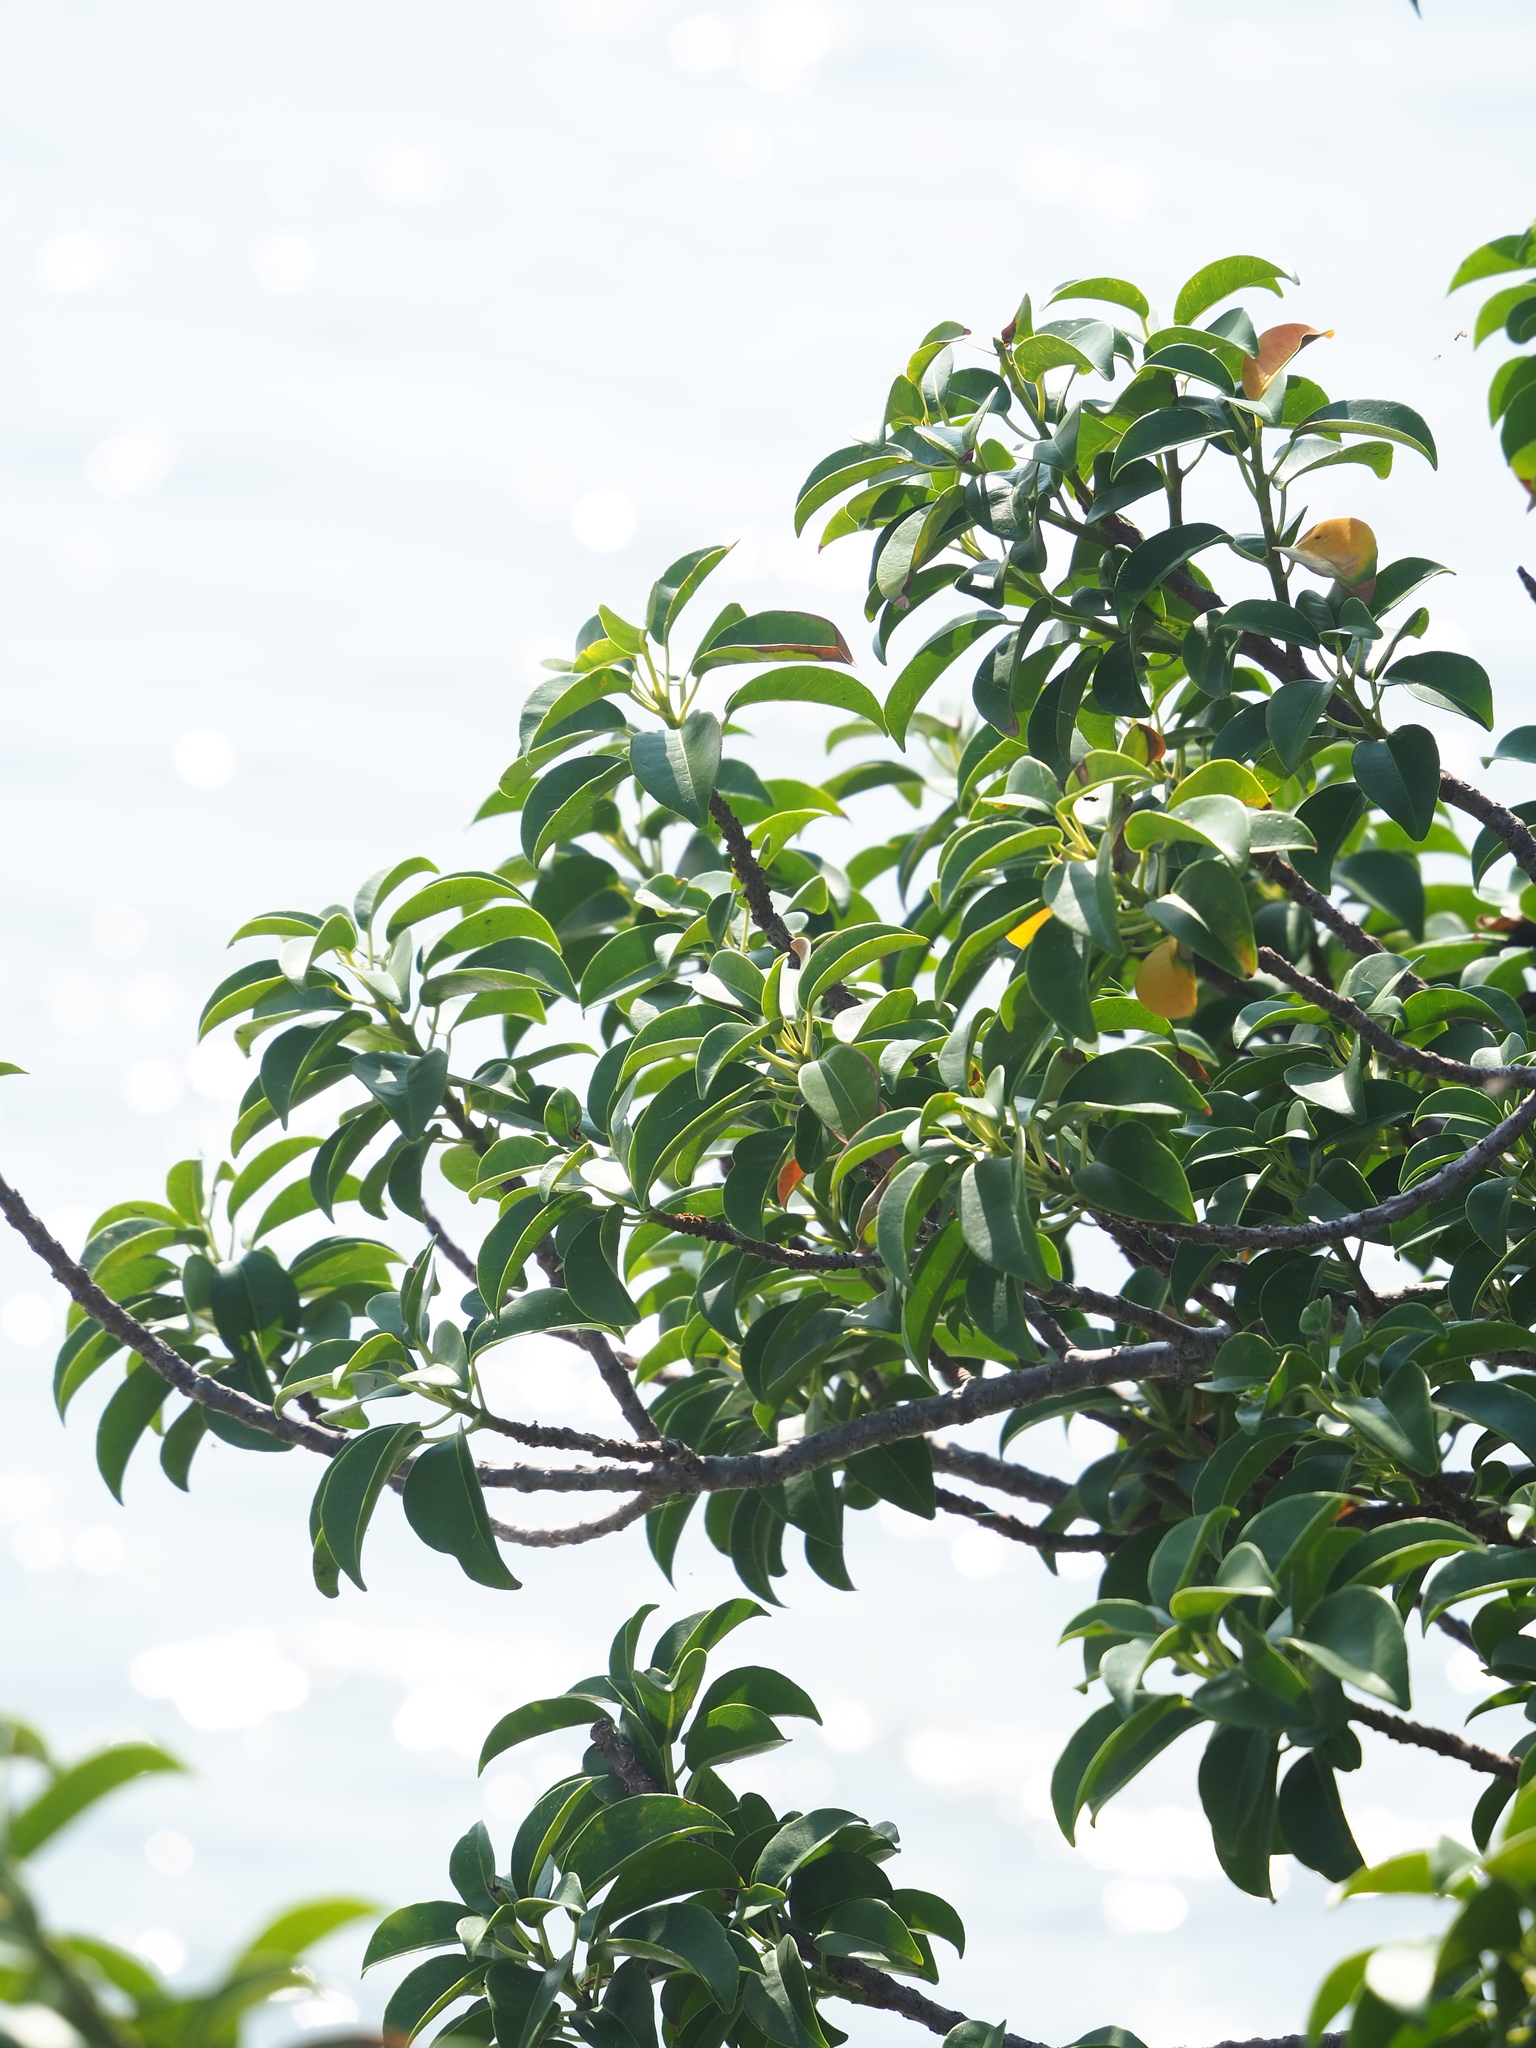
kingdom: Plantae
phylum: Tracheophyta
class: Magnoliopsida
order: Malpighiales
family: Euphorbiaceae
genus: Excoecaria
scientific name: Excoecaria agallocha
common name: River poisontree
